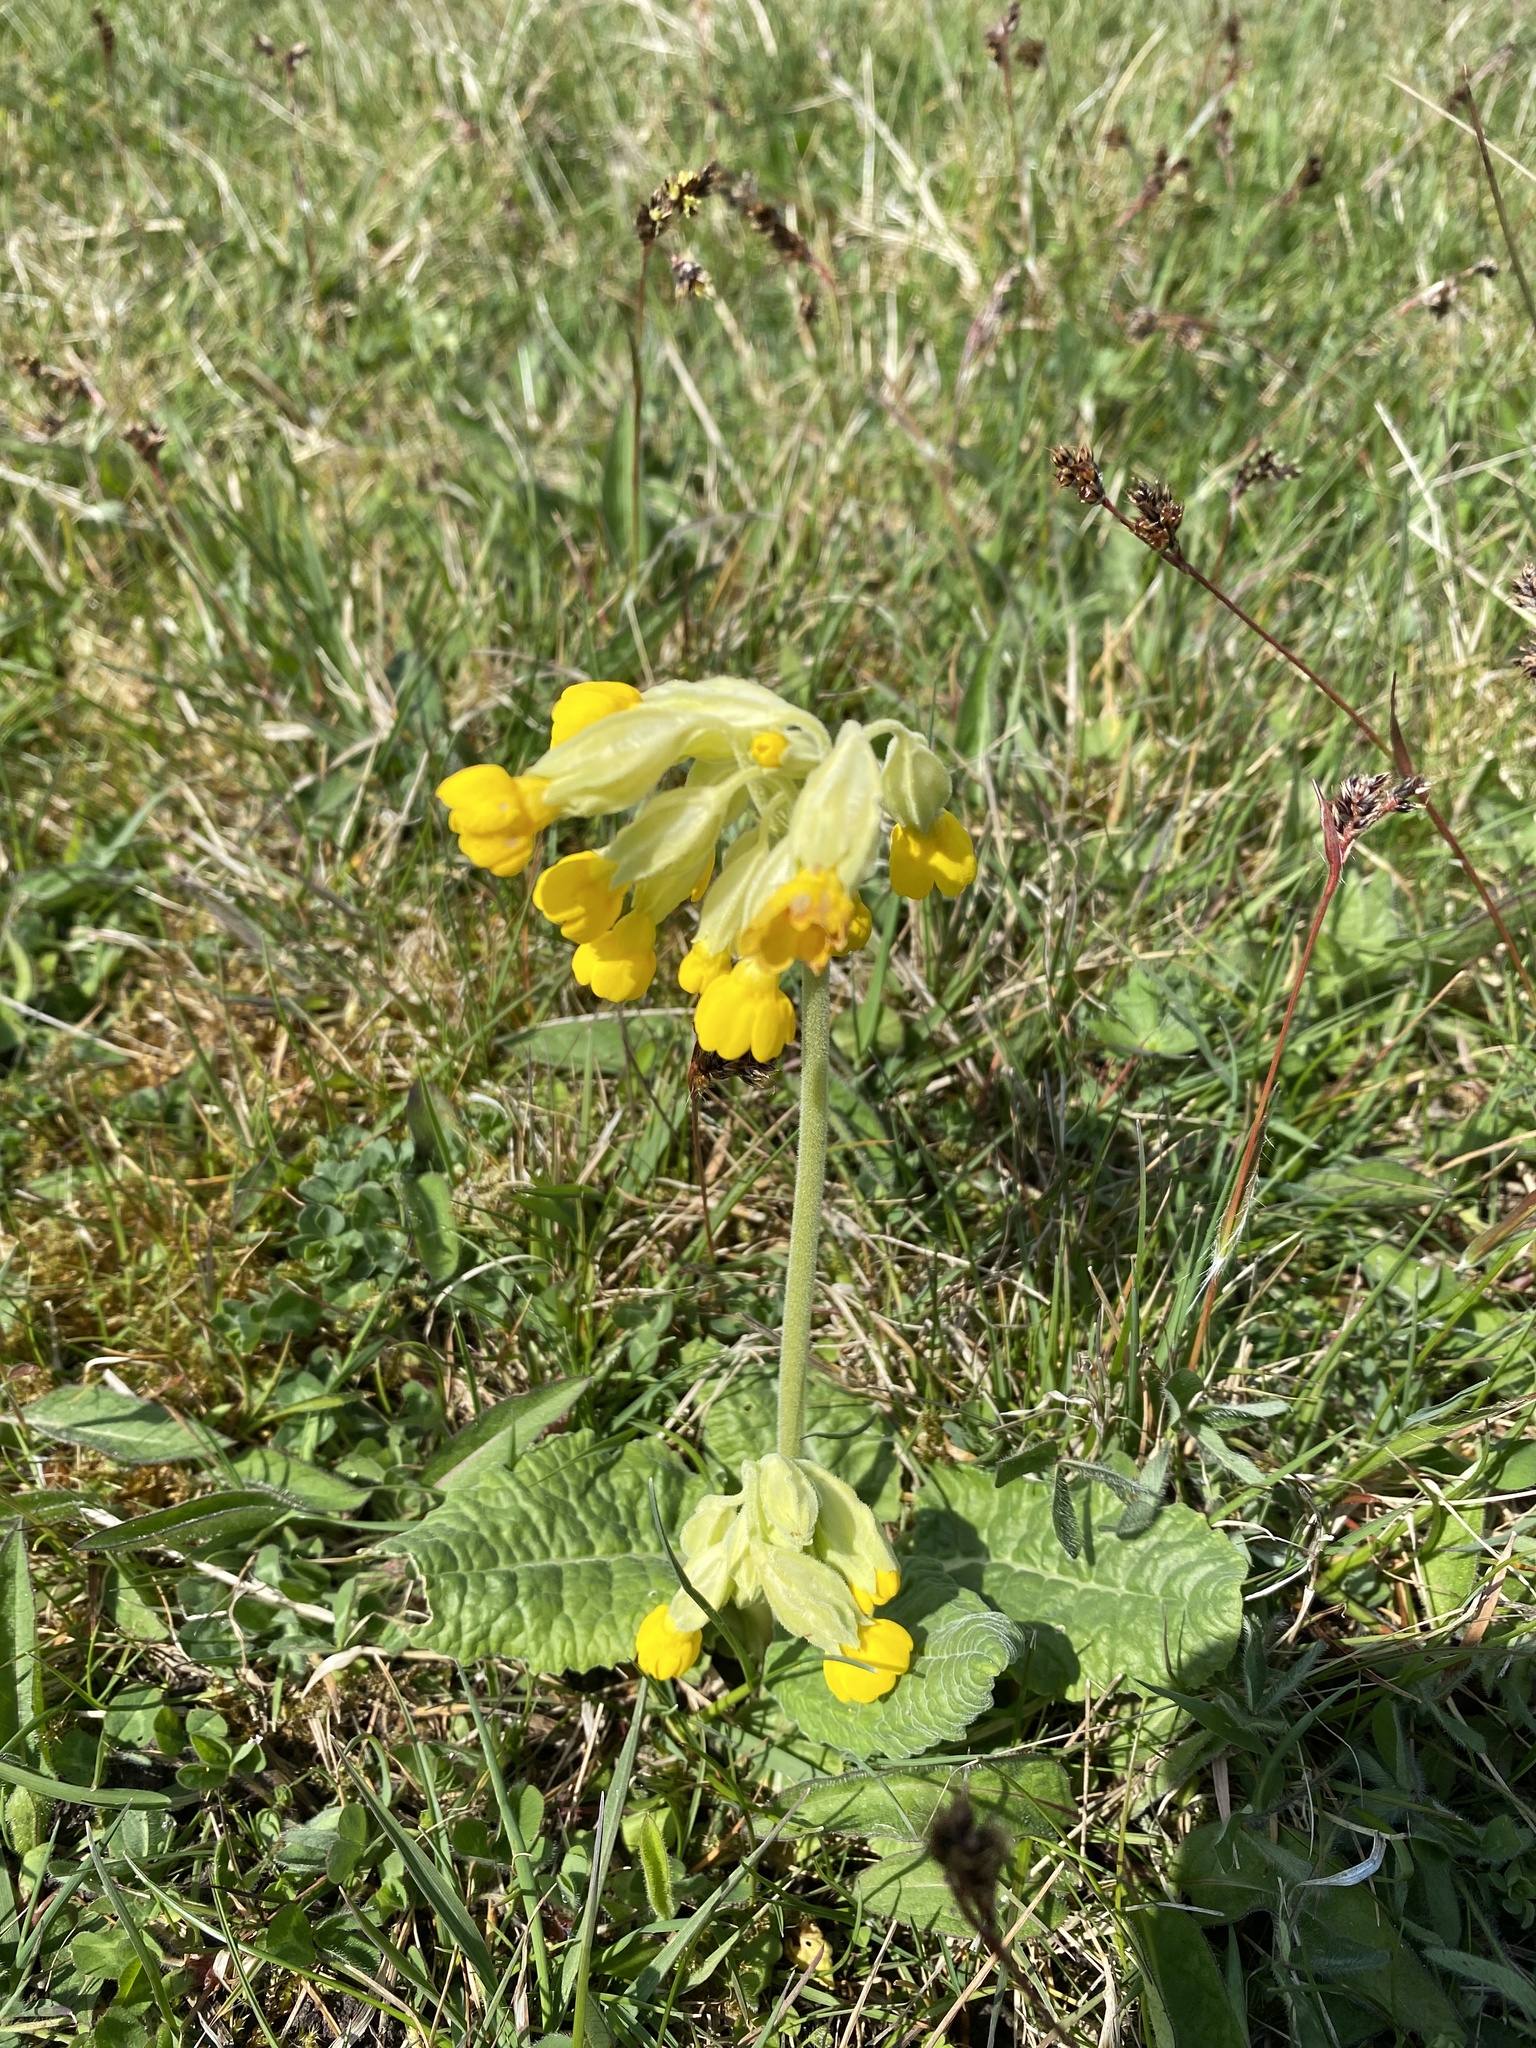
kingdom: Plantae
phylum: Tracheophyta
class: Magnoliopsida
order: Ericales
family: Primulaceae
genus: Primula
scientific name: Primula veris
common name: Cowslip
